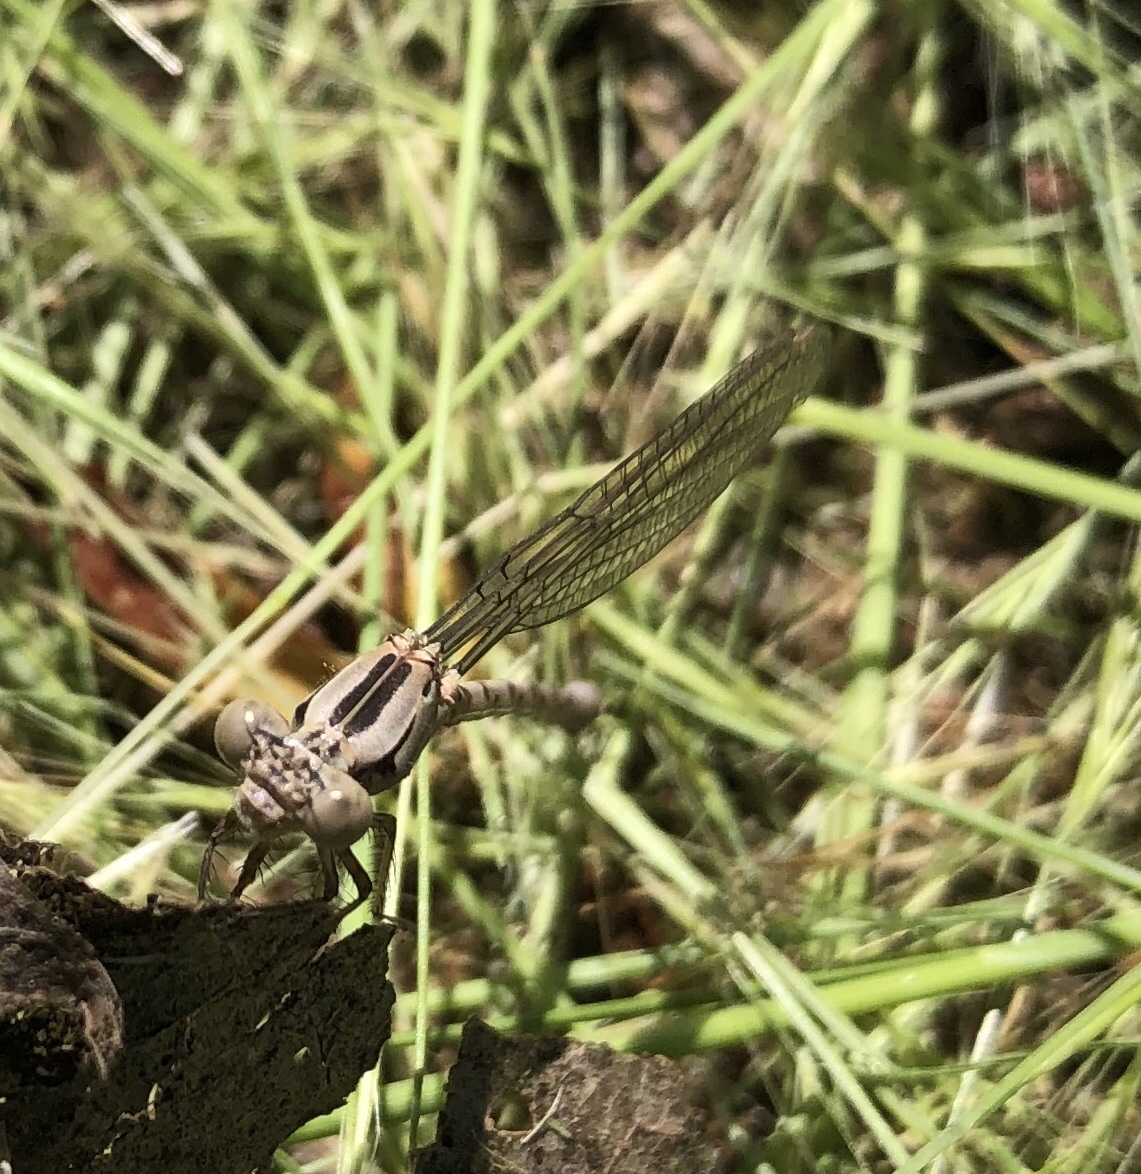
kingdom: Animalia
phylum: Arthropoda
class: Insecta
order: Odonata
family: Coenagrionidae
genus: Argia
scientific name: Argia vivida
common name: Vivid dancer
